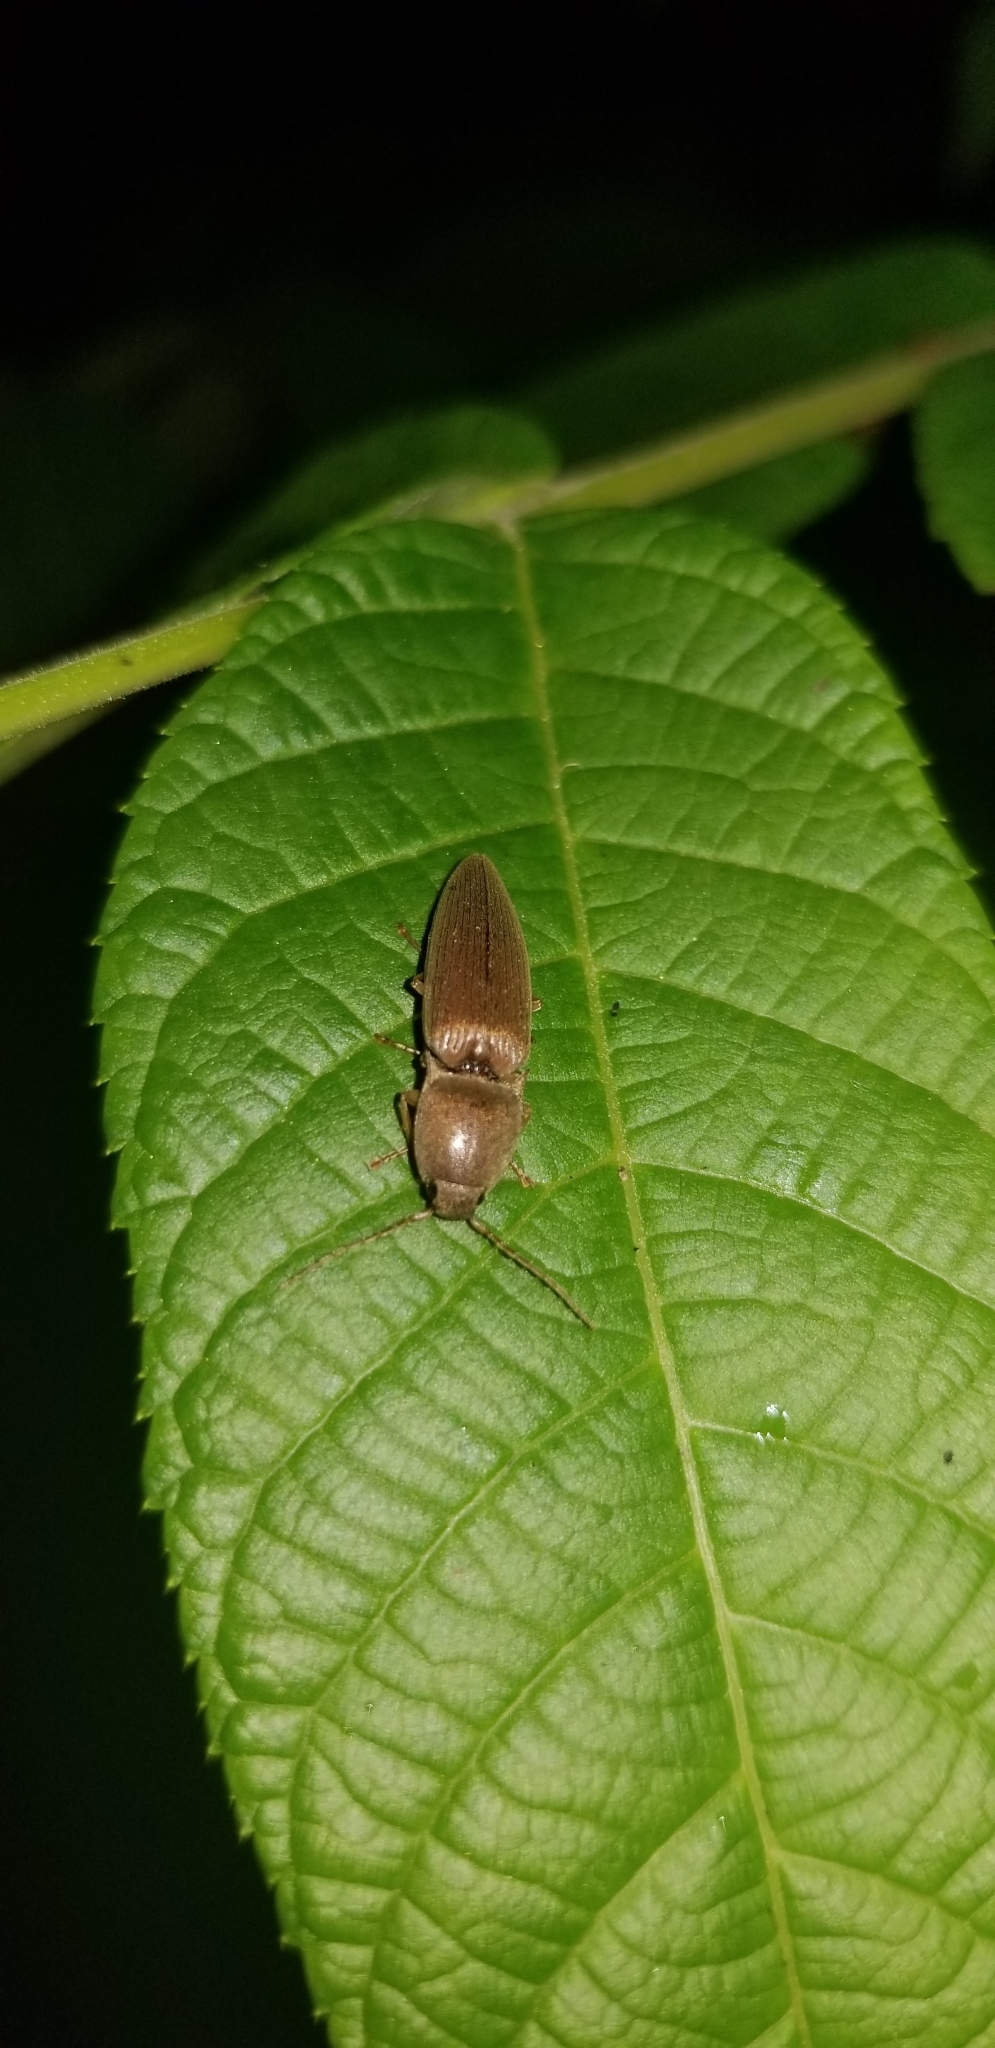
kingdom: Animalia
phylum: Arthropoda
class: Insecta
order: Coleoptera
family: Elateridae
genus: Monocrepidius
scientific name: Monocrepidius lividus
